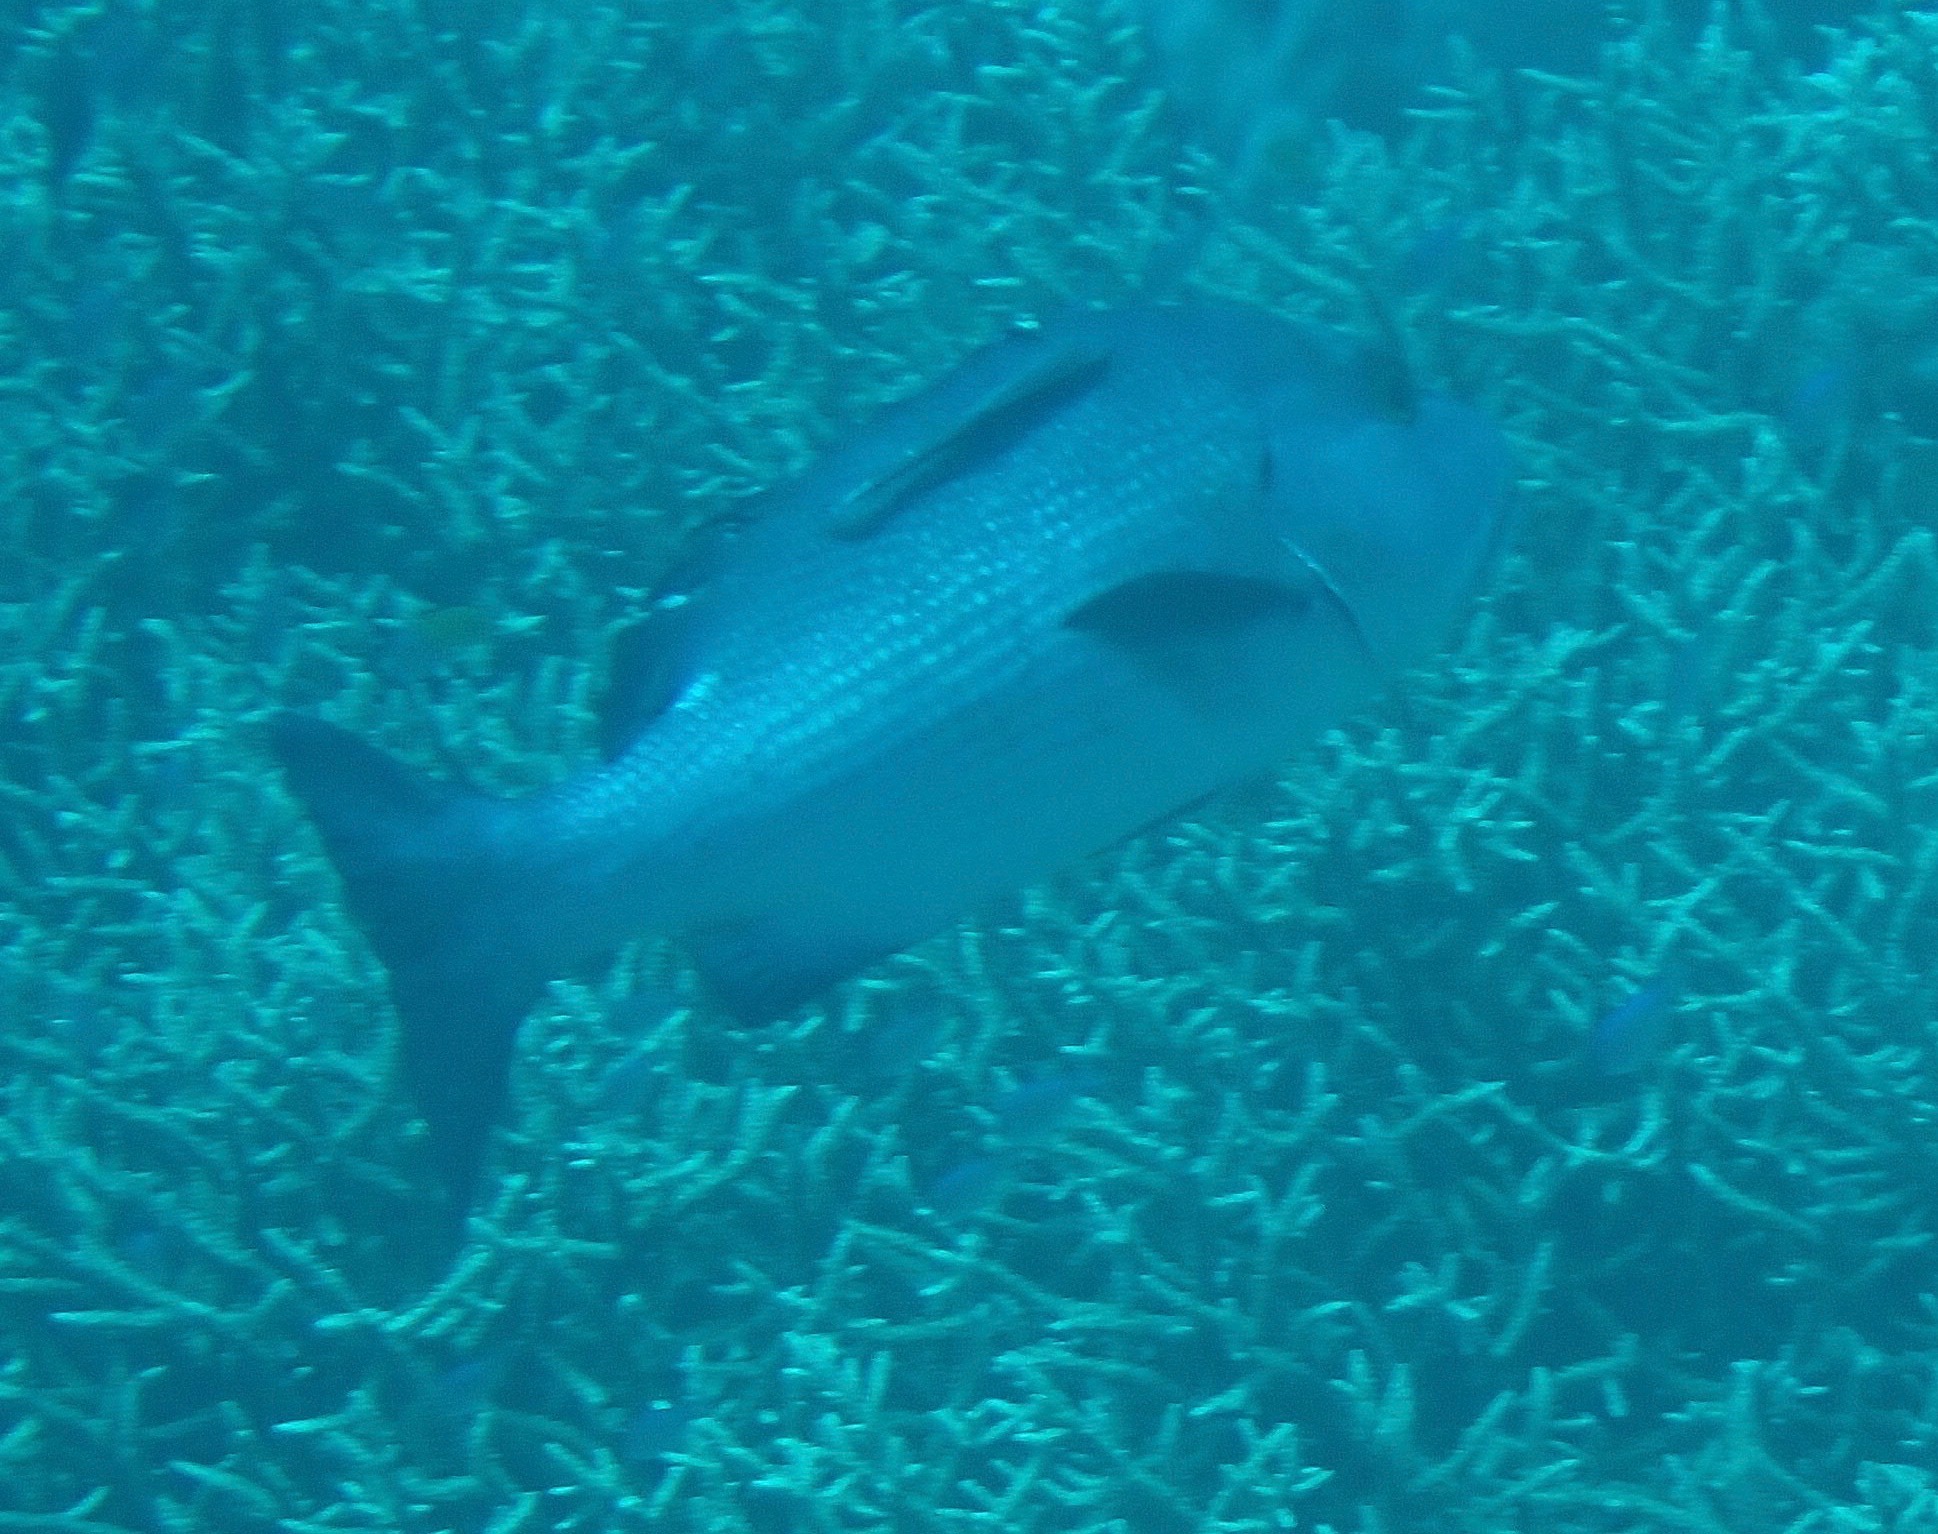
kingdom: Animalia
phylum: Chordata
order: Perciformes
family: Lutjanidae
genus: Lutjanus
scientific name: Lutjanus bohar
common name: Red bass
